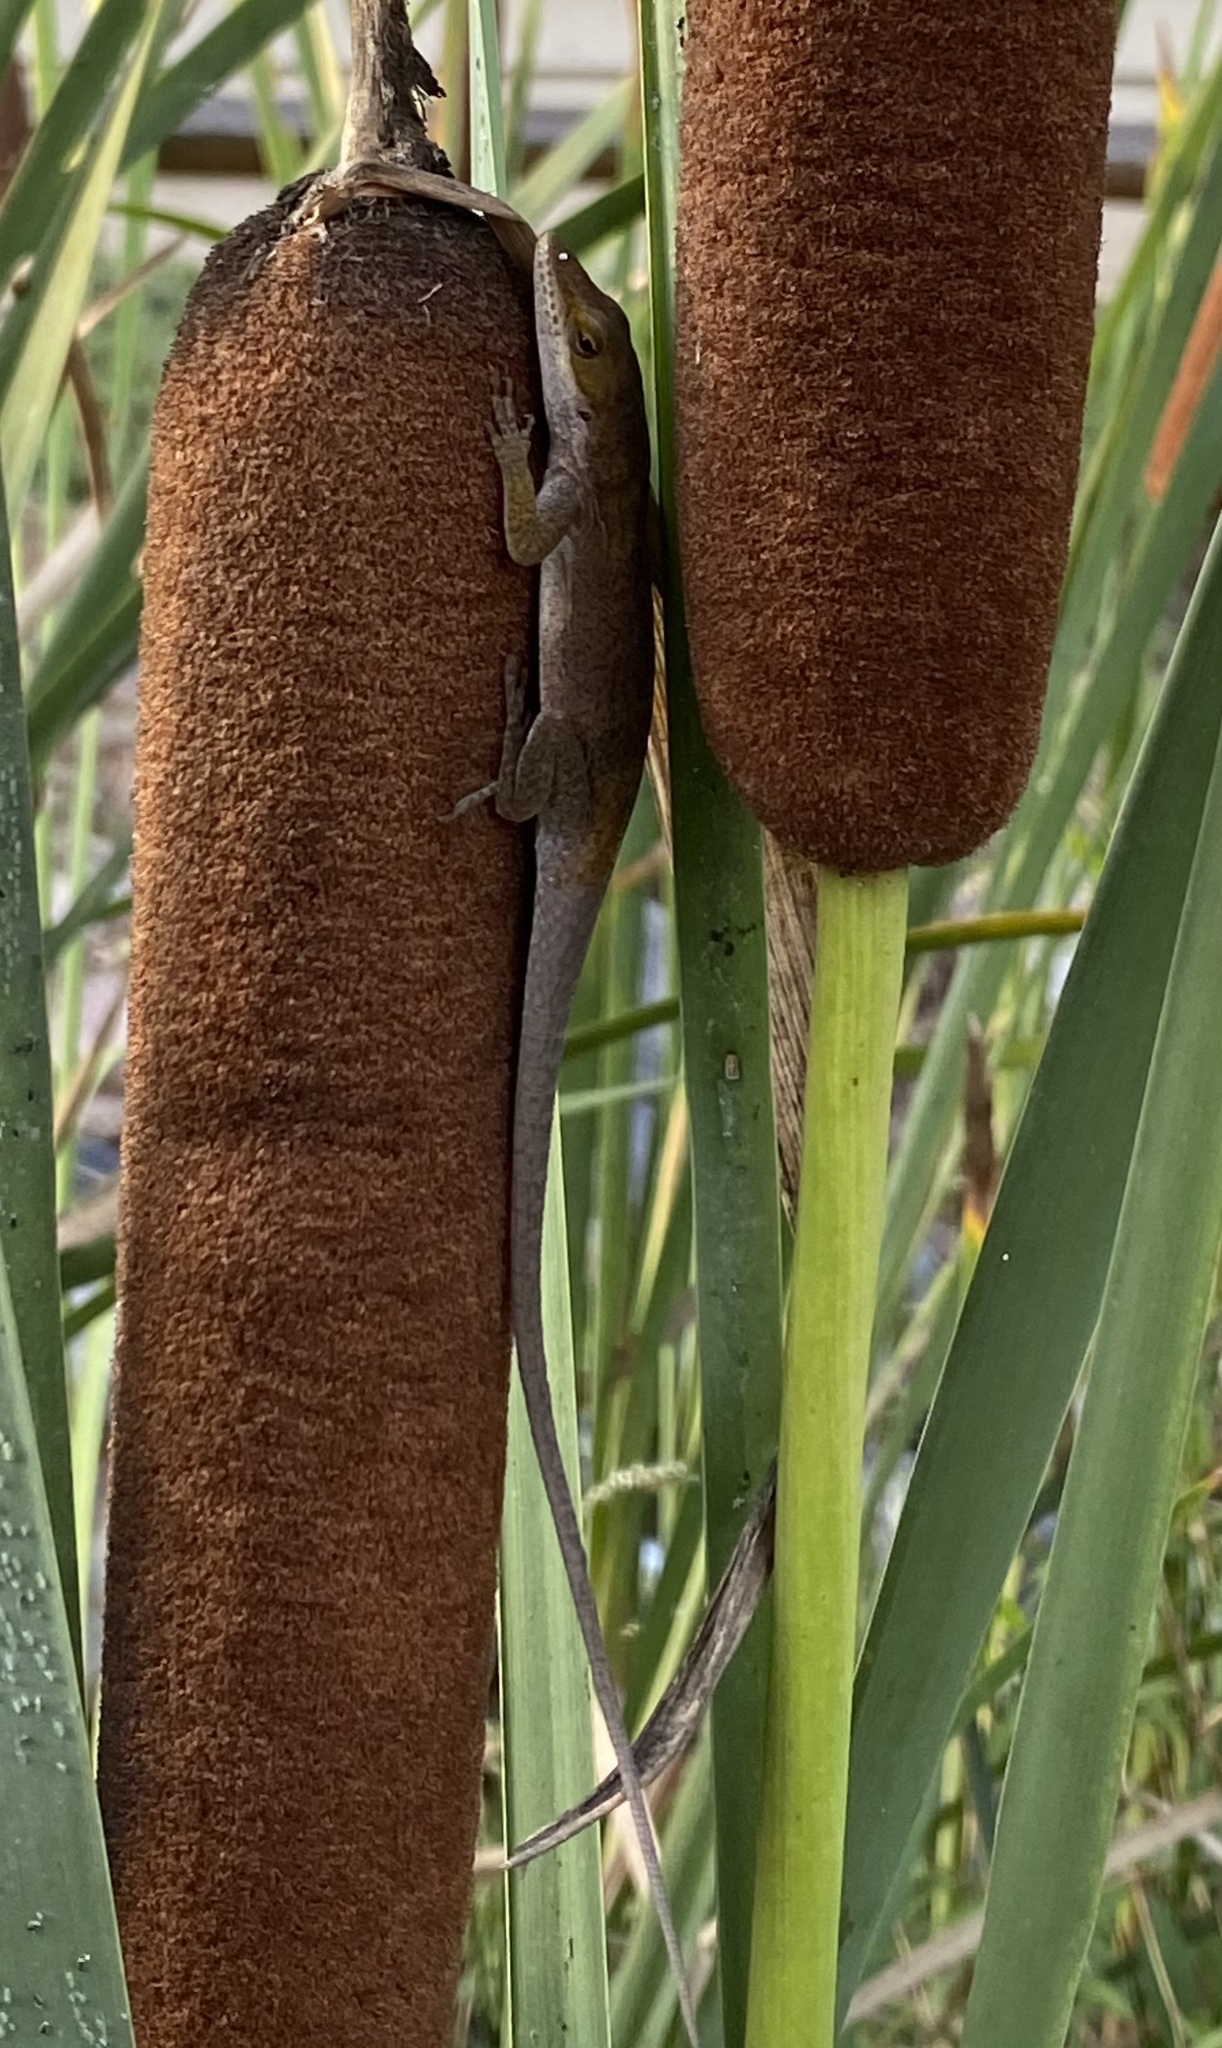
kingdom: Animalia
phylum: Chordata
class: Squamata
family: Dactyloidae
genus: Anolis
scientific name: Anolis carolinensis
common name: Green anole
